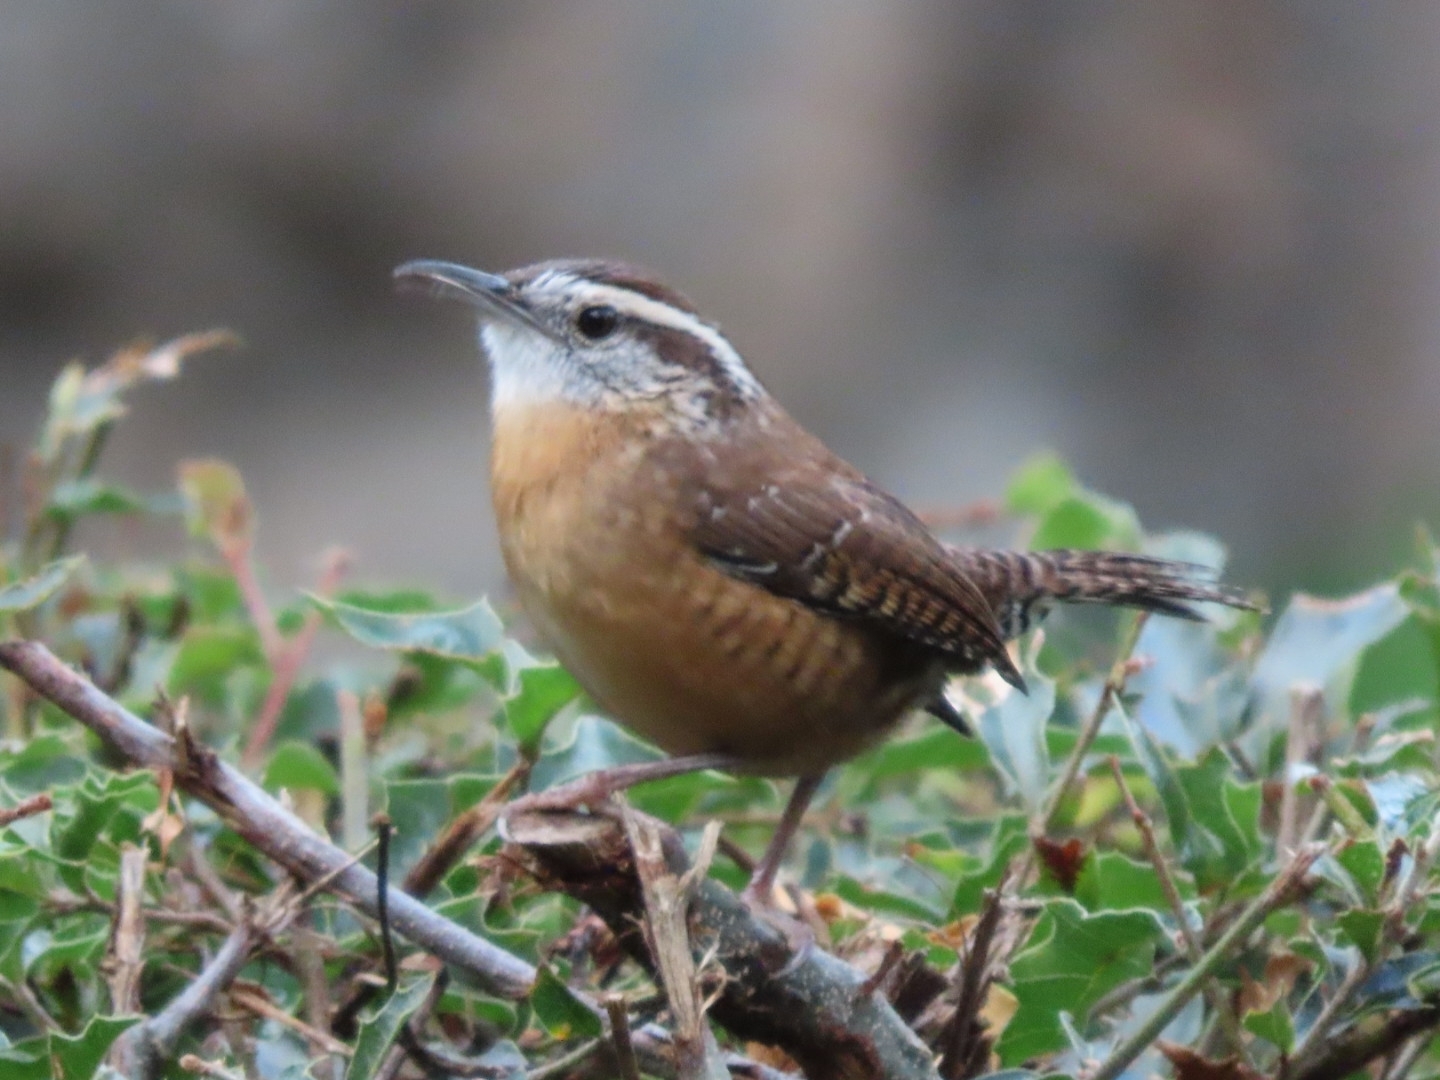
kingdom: Animalia
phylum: Chordata
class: Aves
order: Passeriformes
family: Troglodytidae
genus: Thryothorus
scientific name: Thryothorus ludovicianus
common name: Carolina wren
